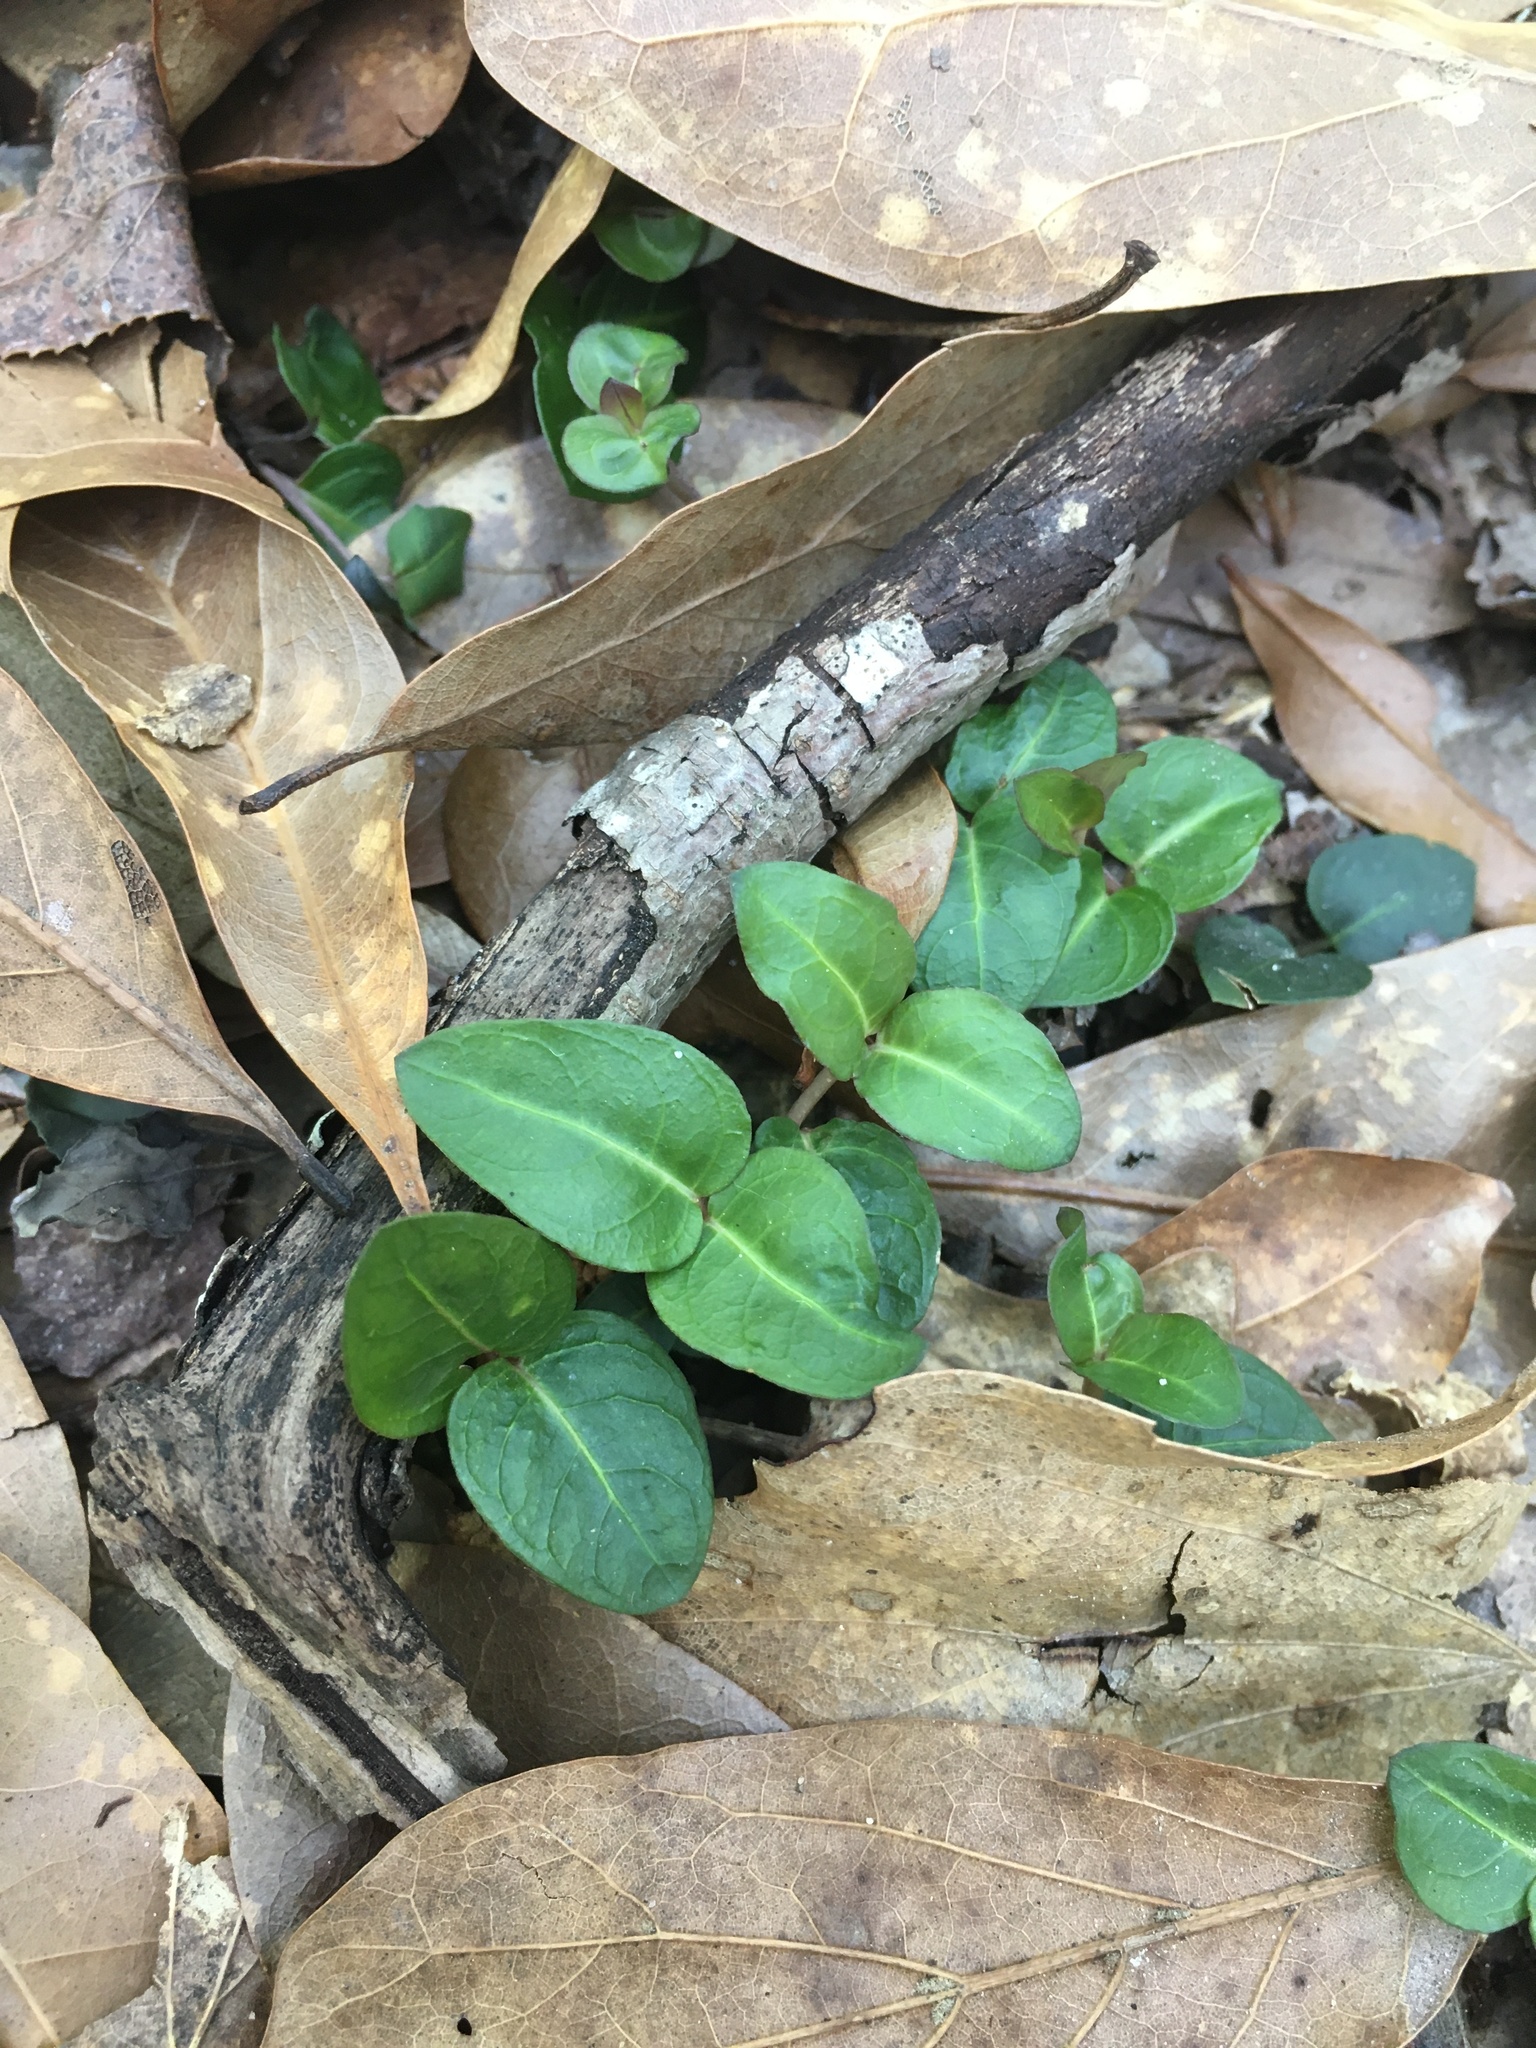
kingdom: Plantae
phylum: Tracheophyta
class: Magnoliopsida
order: Gentianales
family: Rubiaceae
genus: Mitchella
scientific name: Mitchella repens
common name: Partridge-berry
